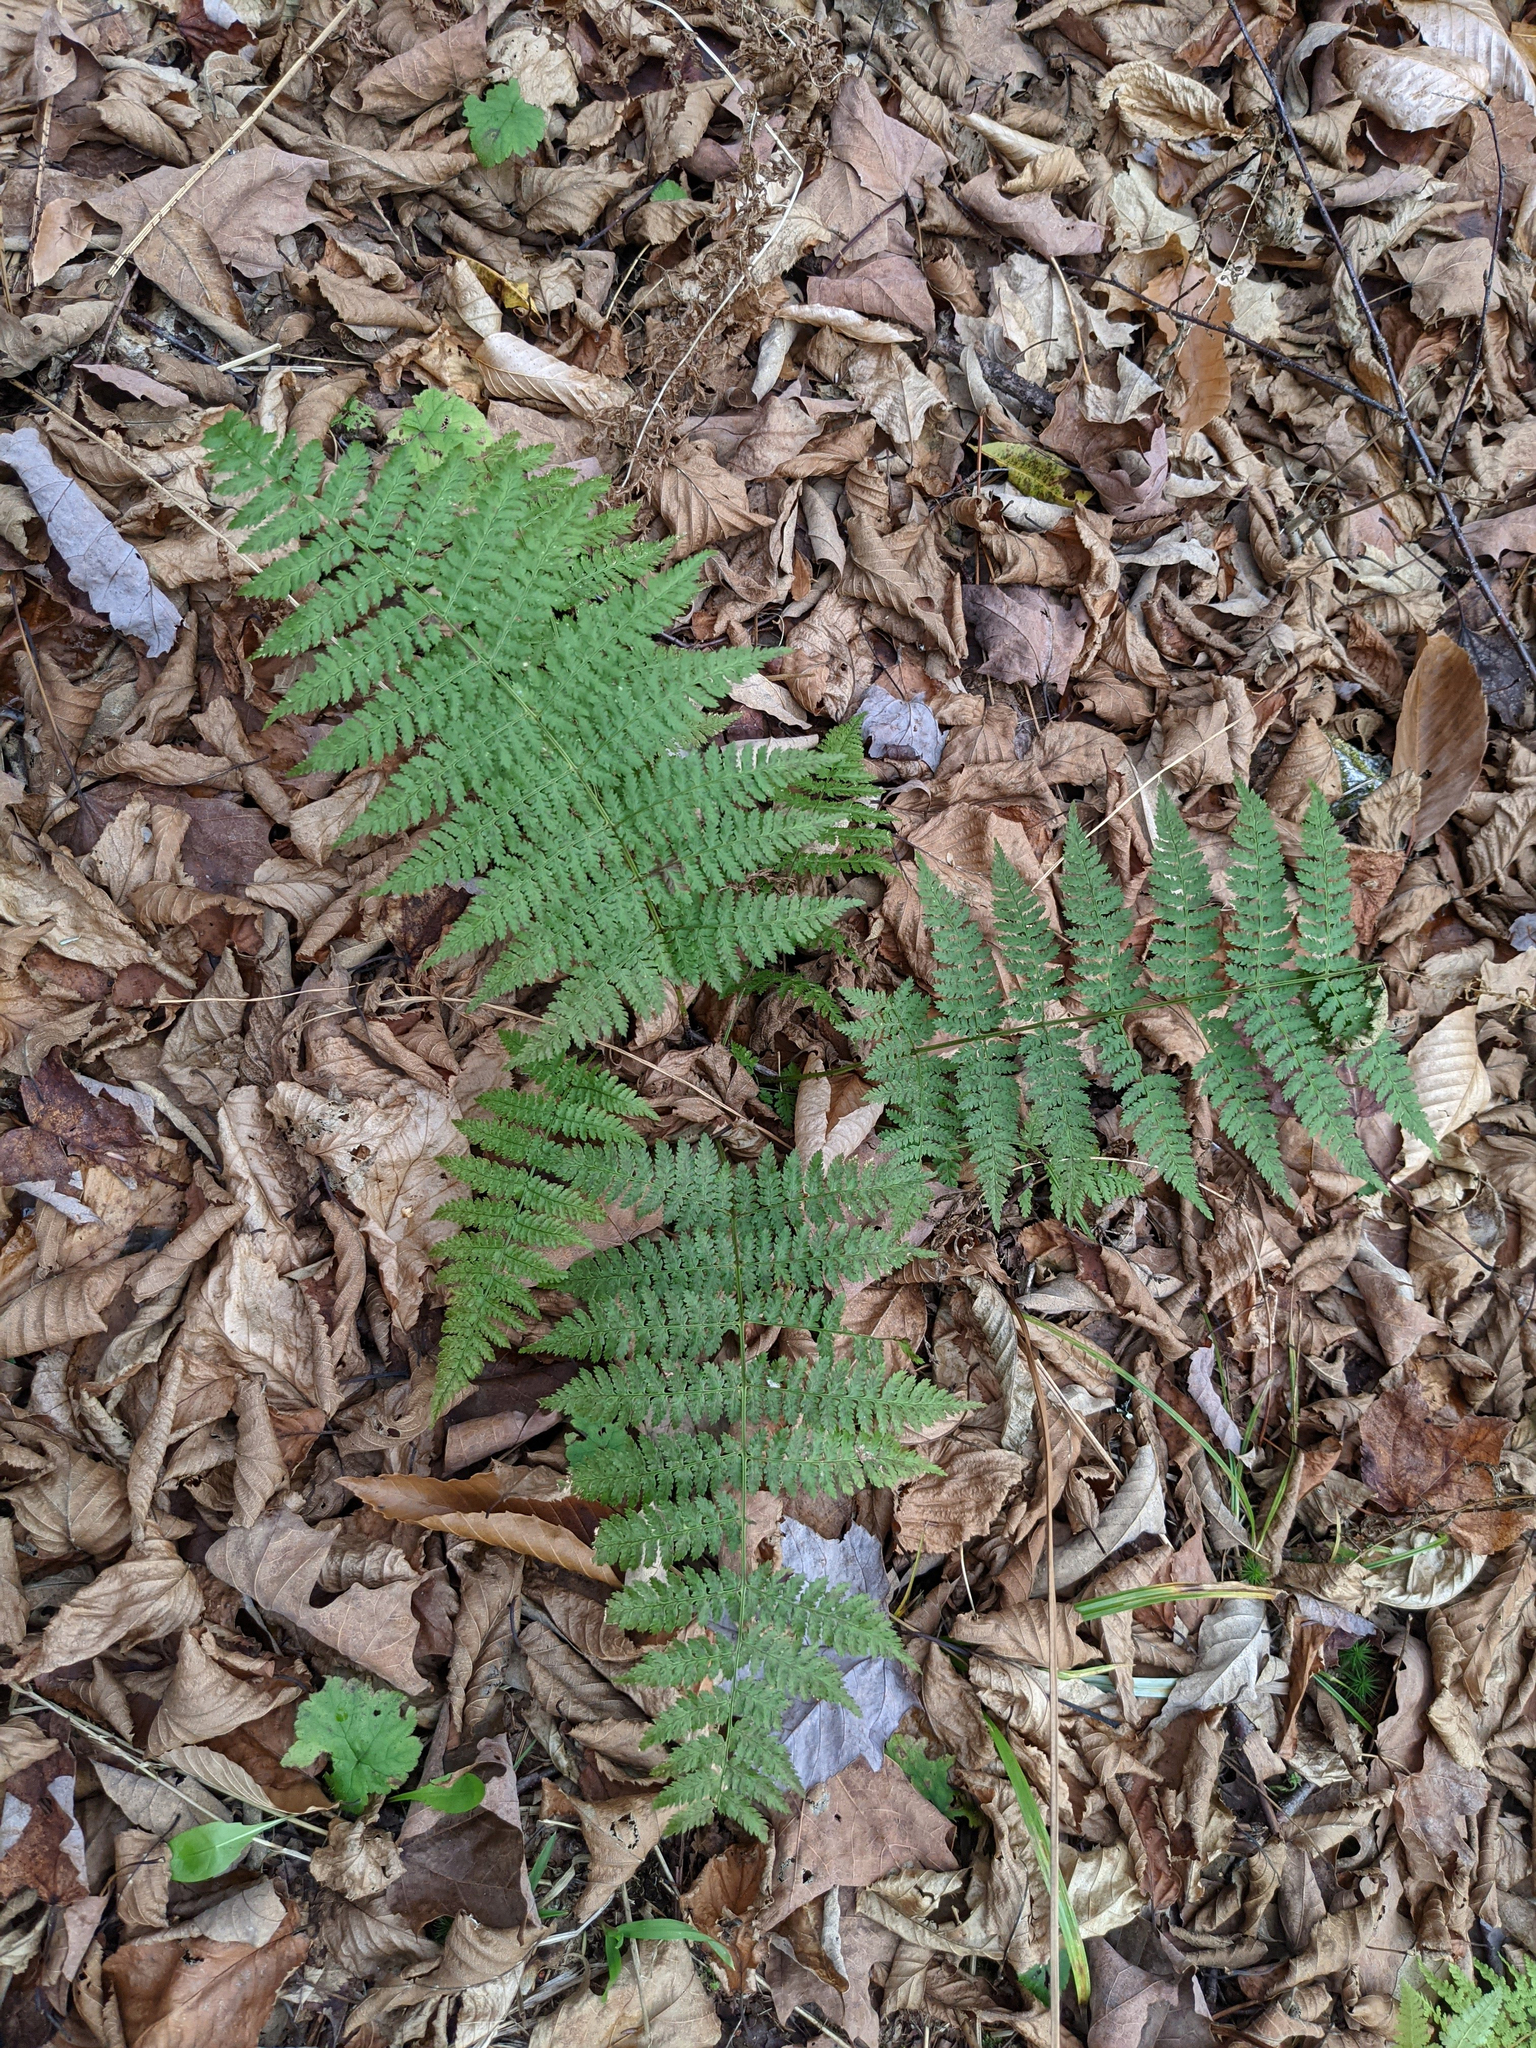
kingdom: Plantae
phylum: Tracheophyta
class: Polypodiopsida
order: Polypodiales
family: Dryopteridaceae
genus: Dryopteris
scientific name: Dryopteris intermedia
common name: Evergreen wood fern
